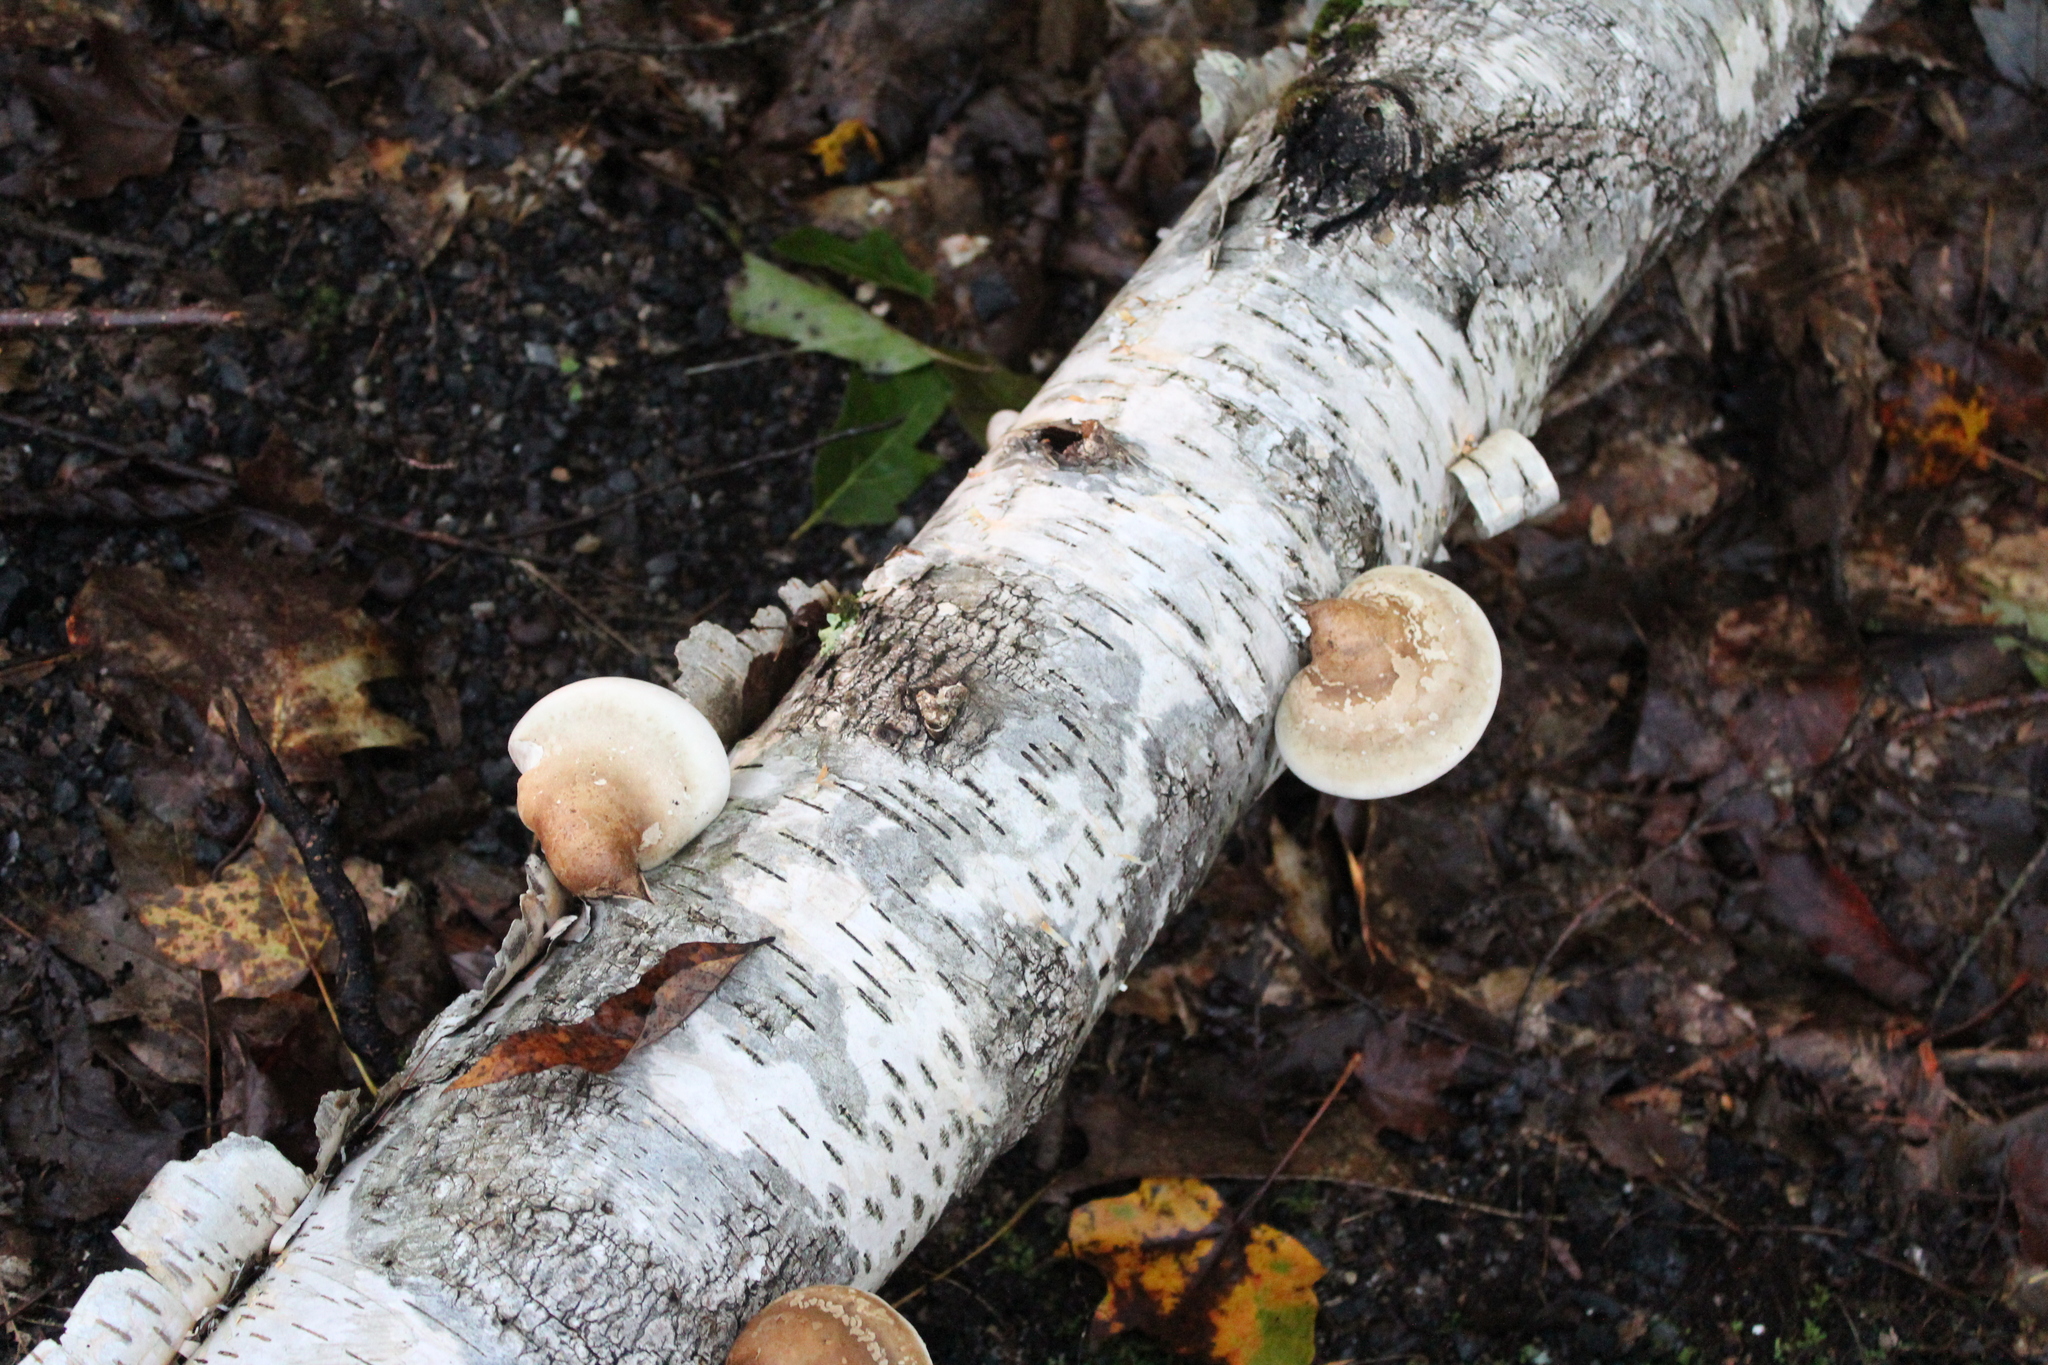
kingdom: Fungi
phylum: Basidiomycota
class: Agaricomycetes
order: Polyporales
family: Fomitopsidaceae
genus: Fomitopsis
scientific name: Fomitopsis betulina
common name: Birch polypore
